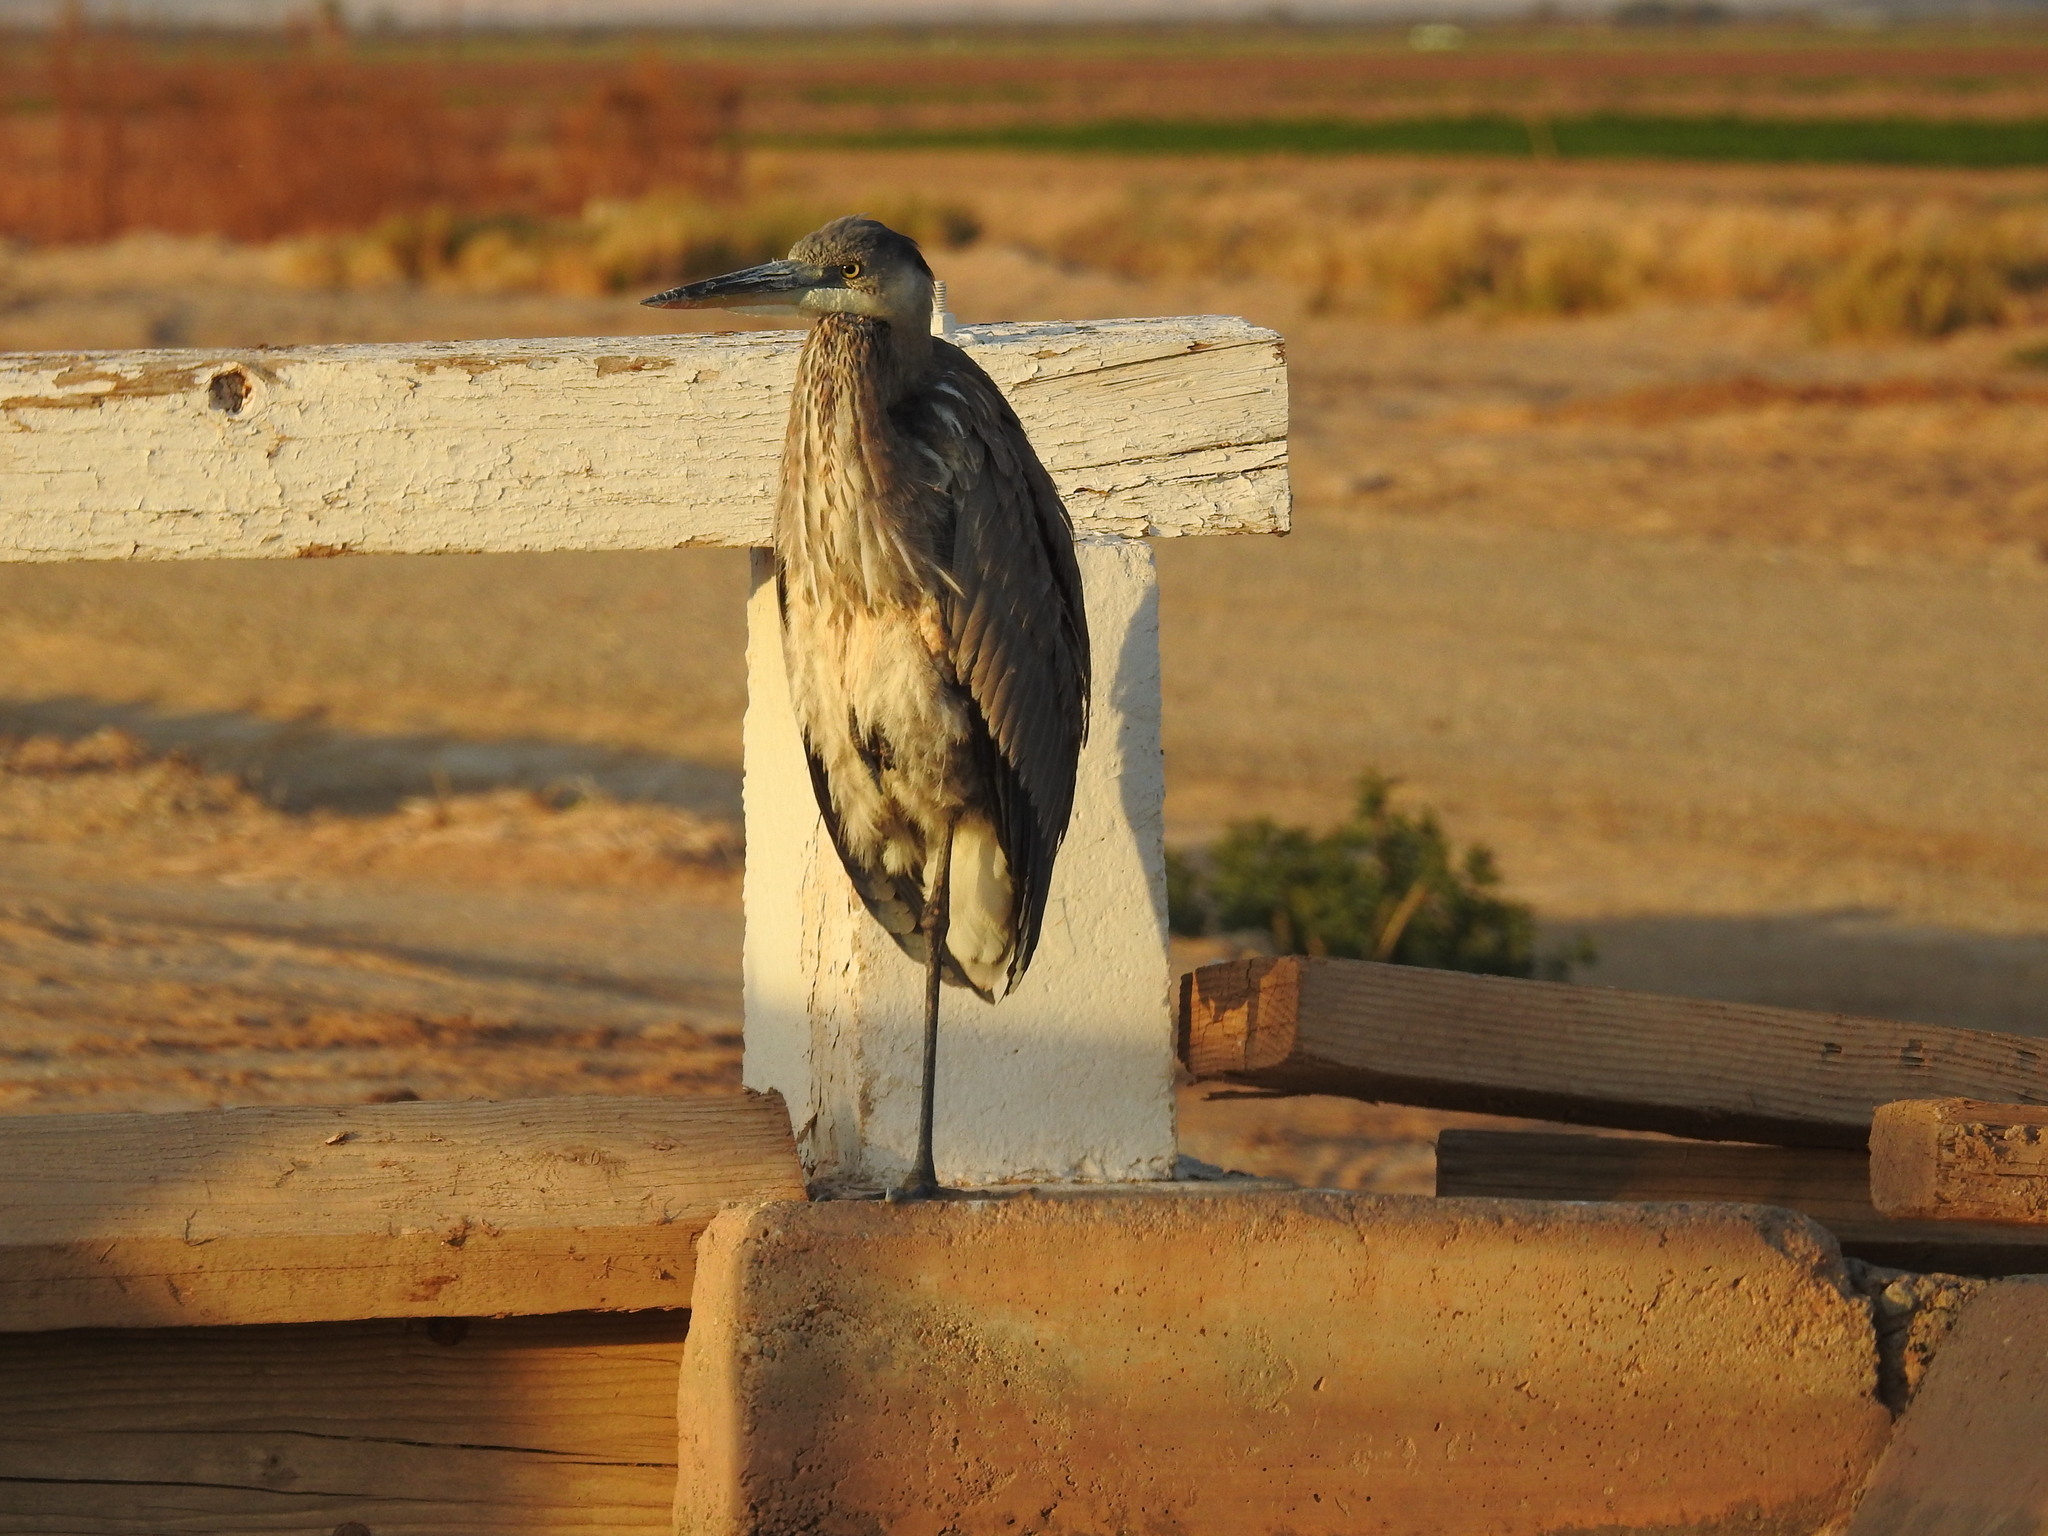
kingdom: Animalia
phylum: Chordata
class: Aves
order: Pelecaniformes
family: Ardeidae
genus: Ardea
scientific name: Ardea herodias
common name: Great blue heron
